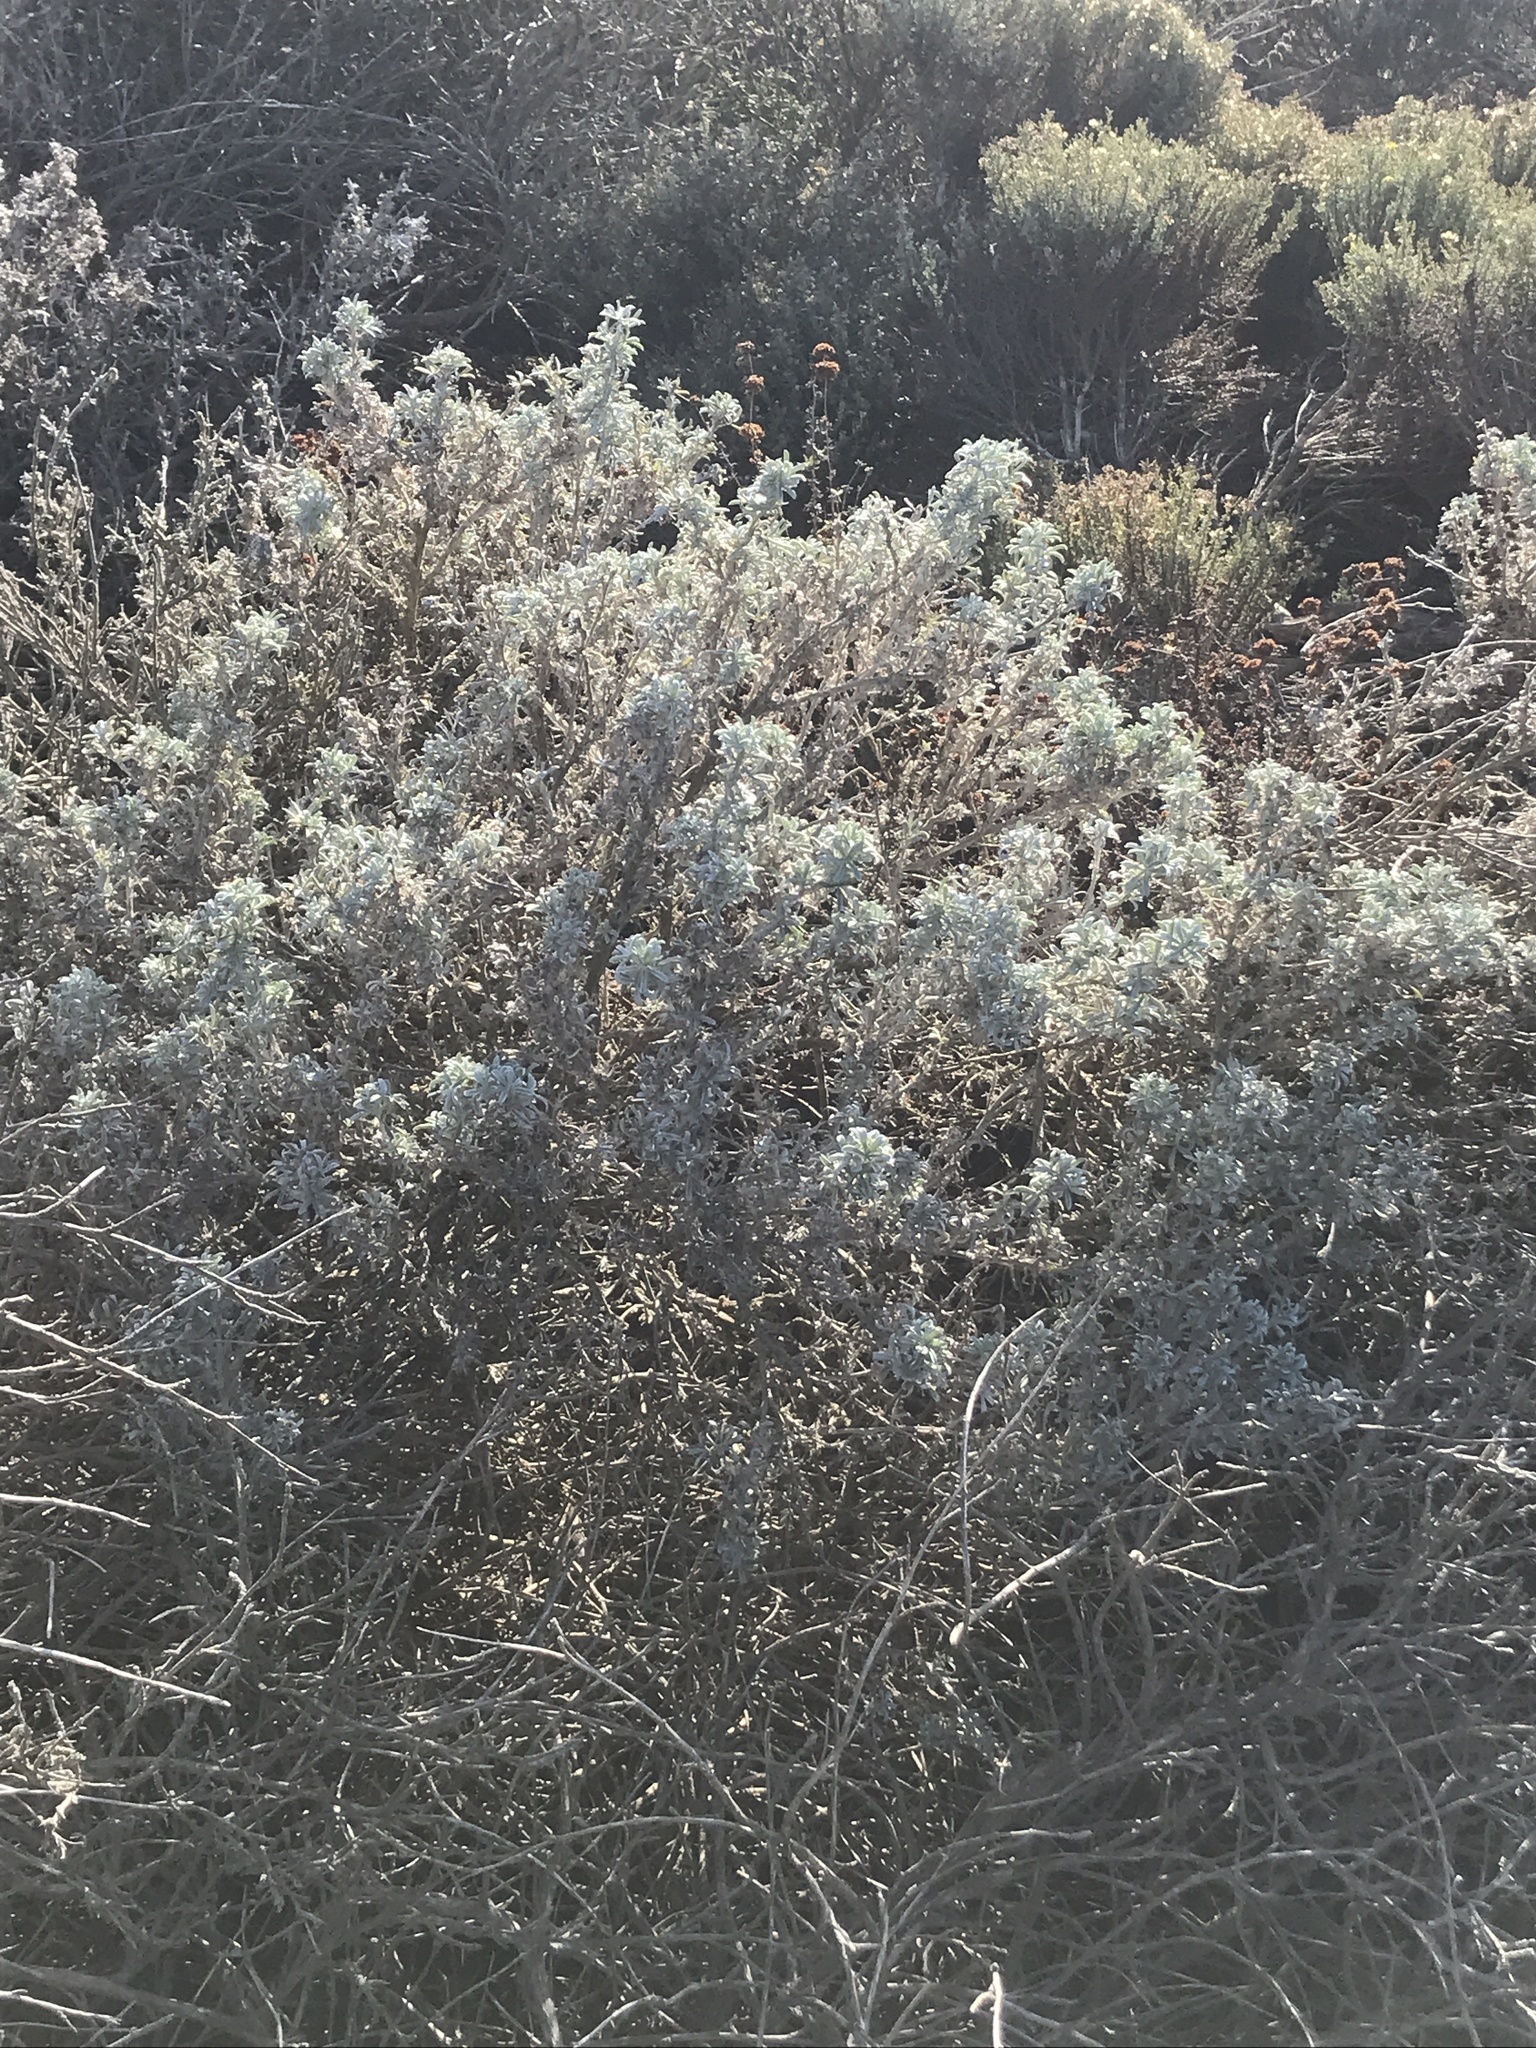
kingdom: Plantae
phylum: Tracheophyta
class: Magnoliopsida
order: Fabales
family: Fabaceae
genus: Lupinus
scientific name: Lupinus chamissonis
